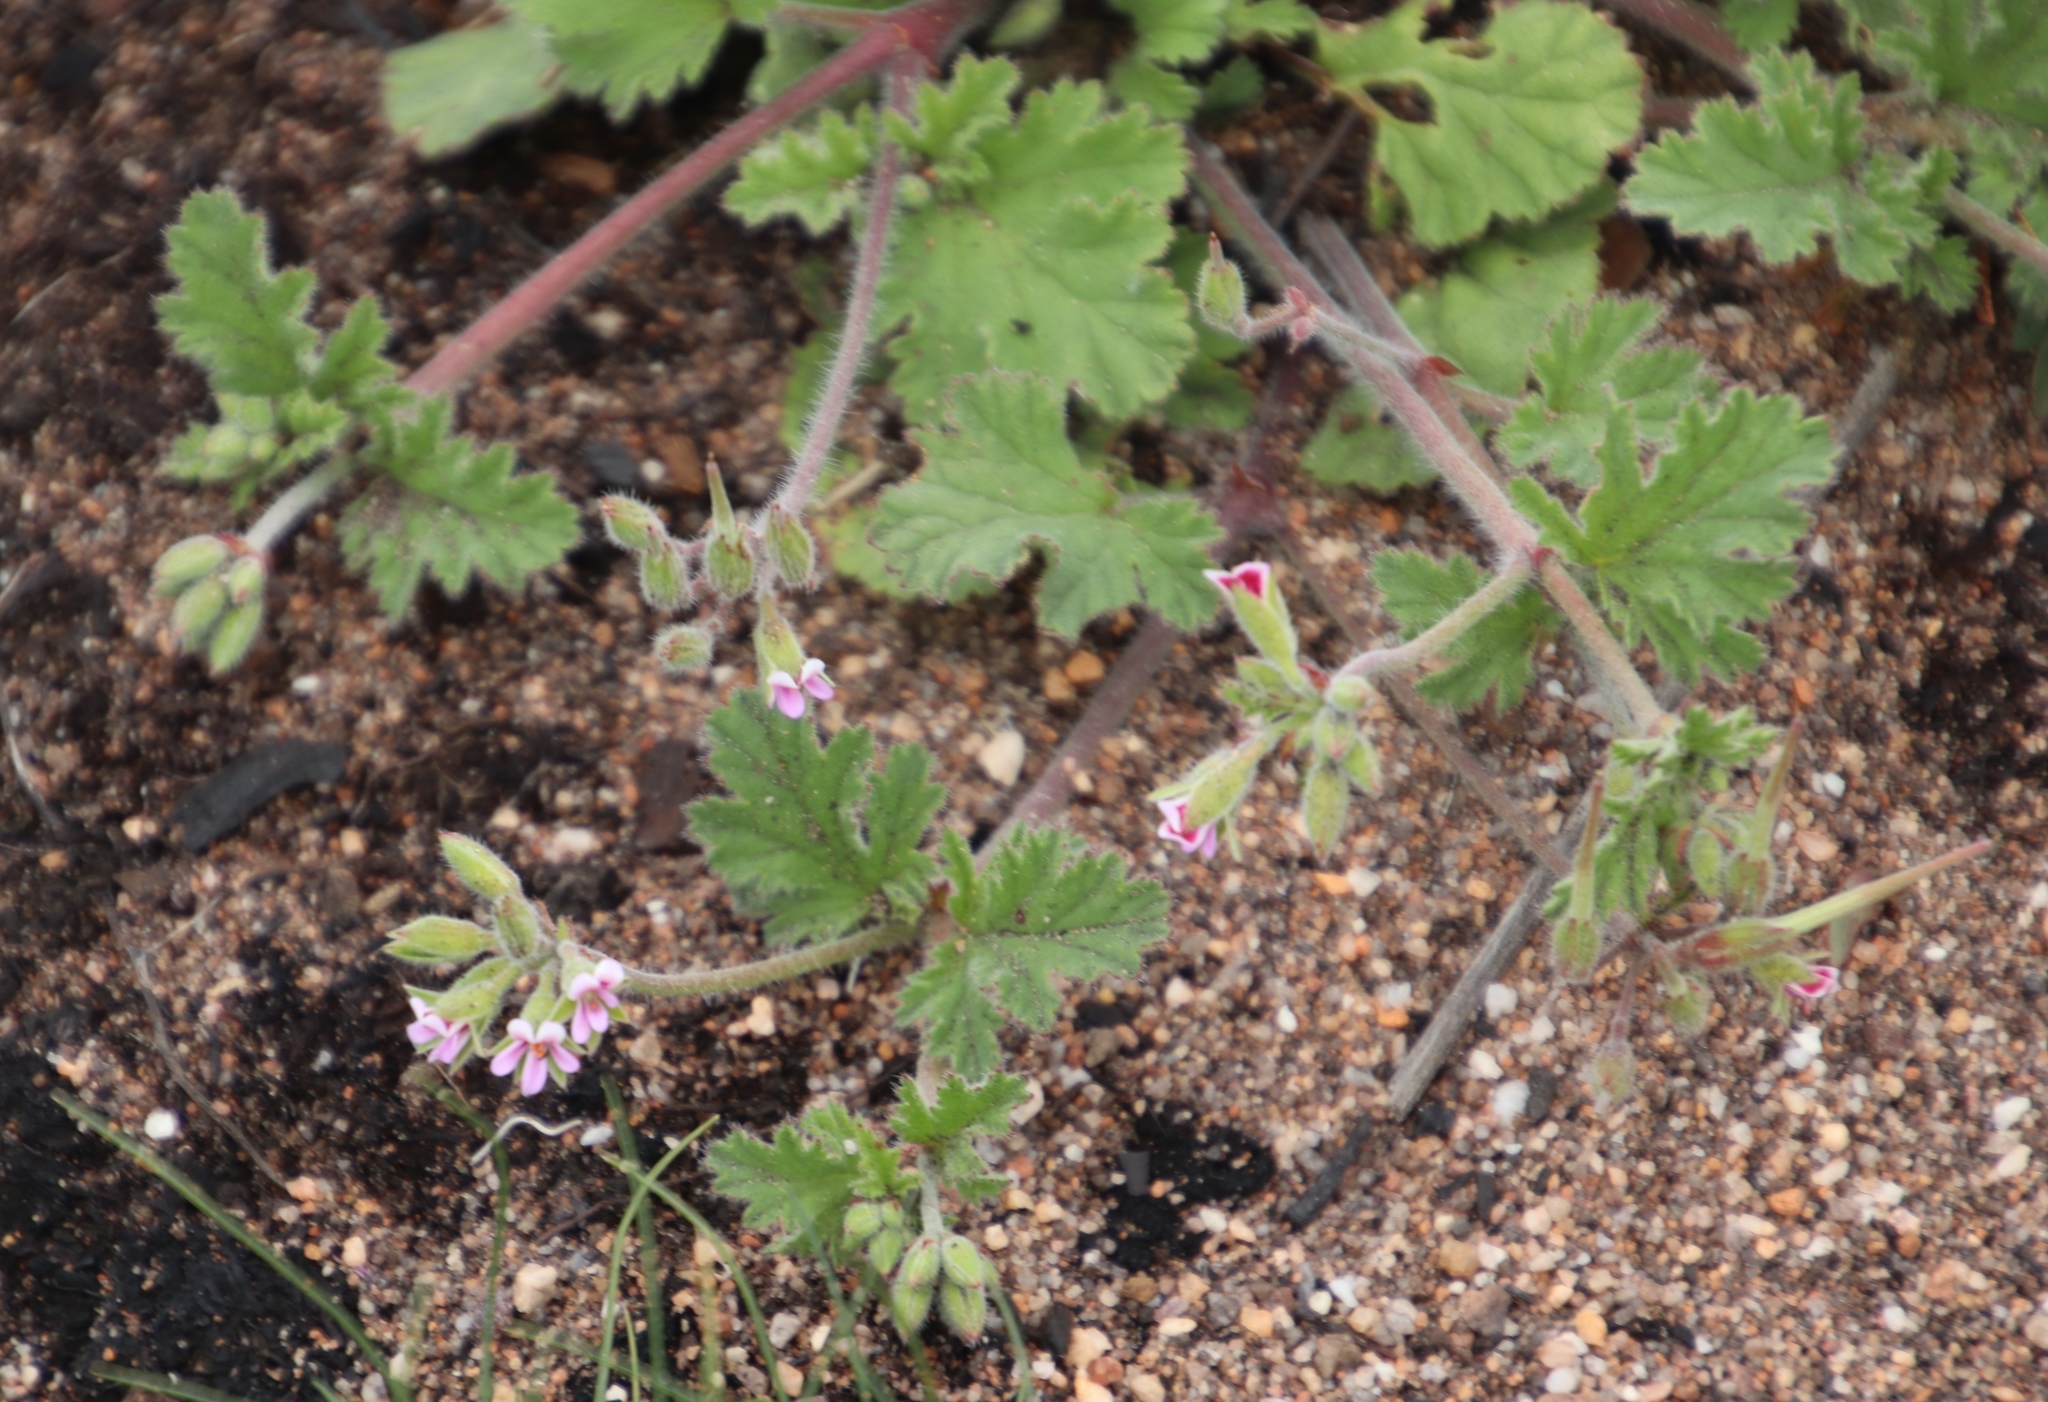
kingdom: Plantae
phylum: Tracheophyta
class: Magnoliopsida
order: Geraniales
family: Geraniaceae
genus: Pelargonium
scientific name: Pelargonium althaeoides
